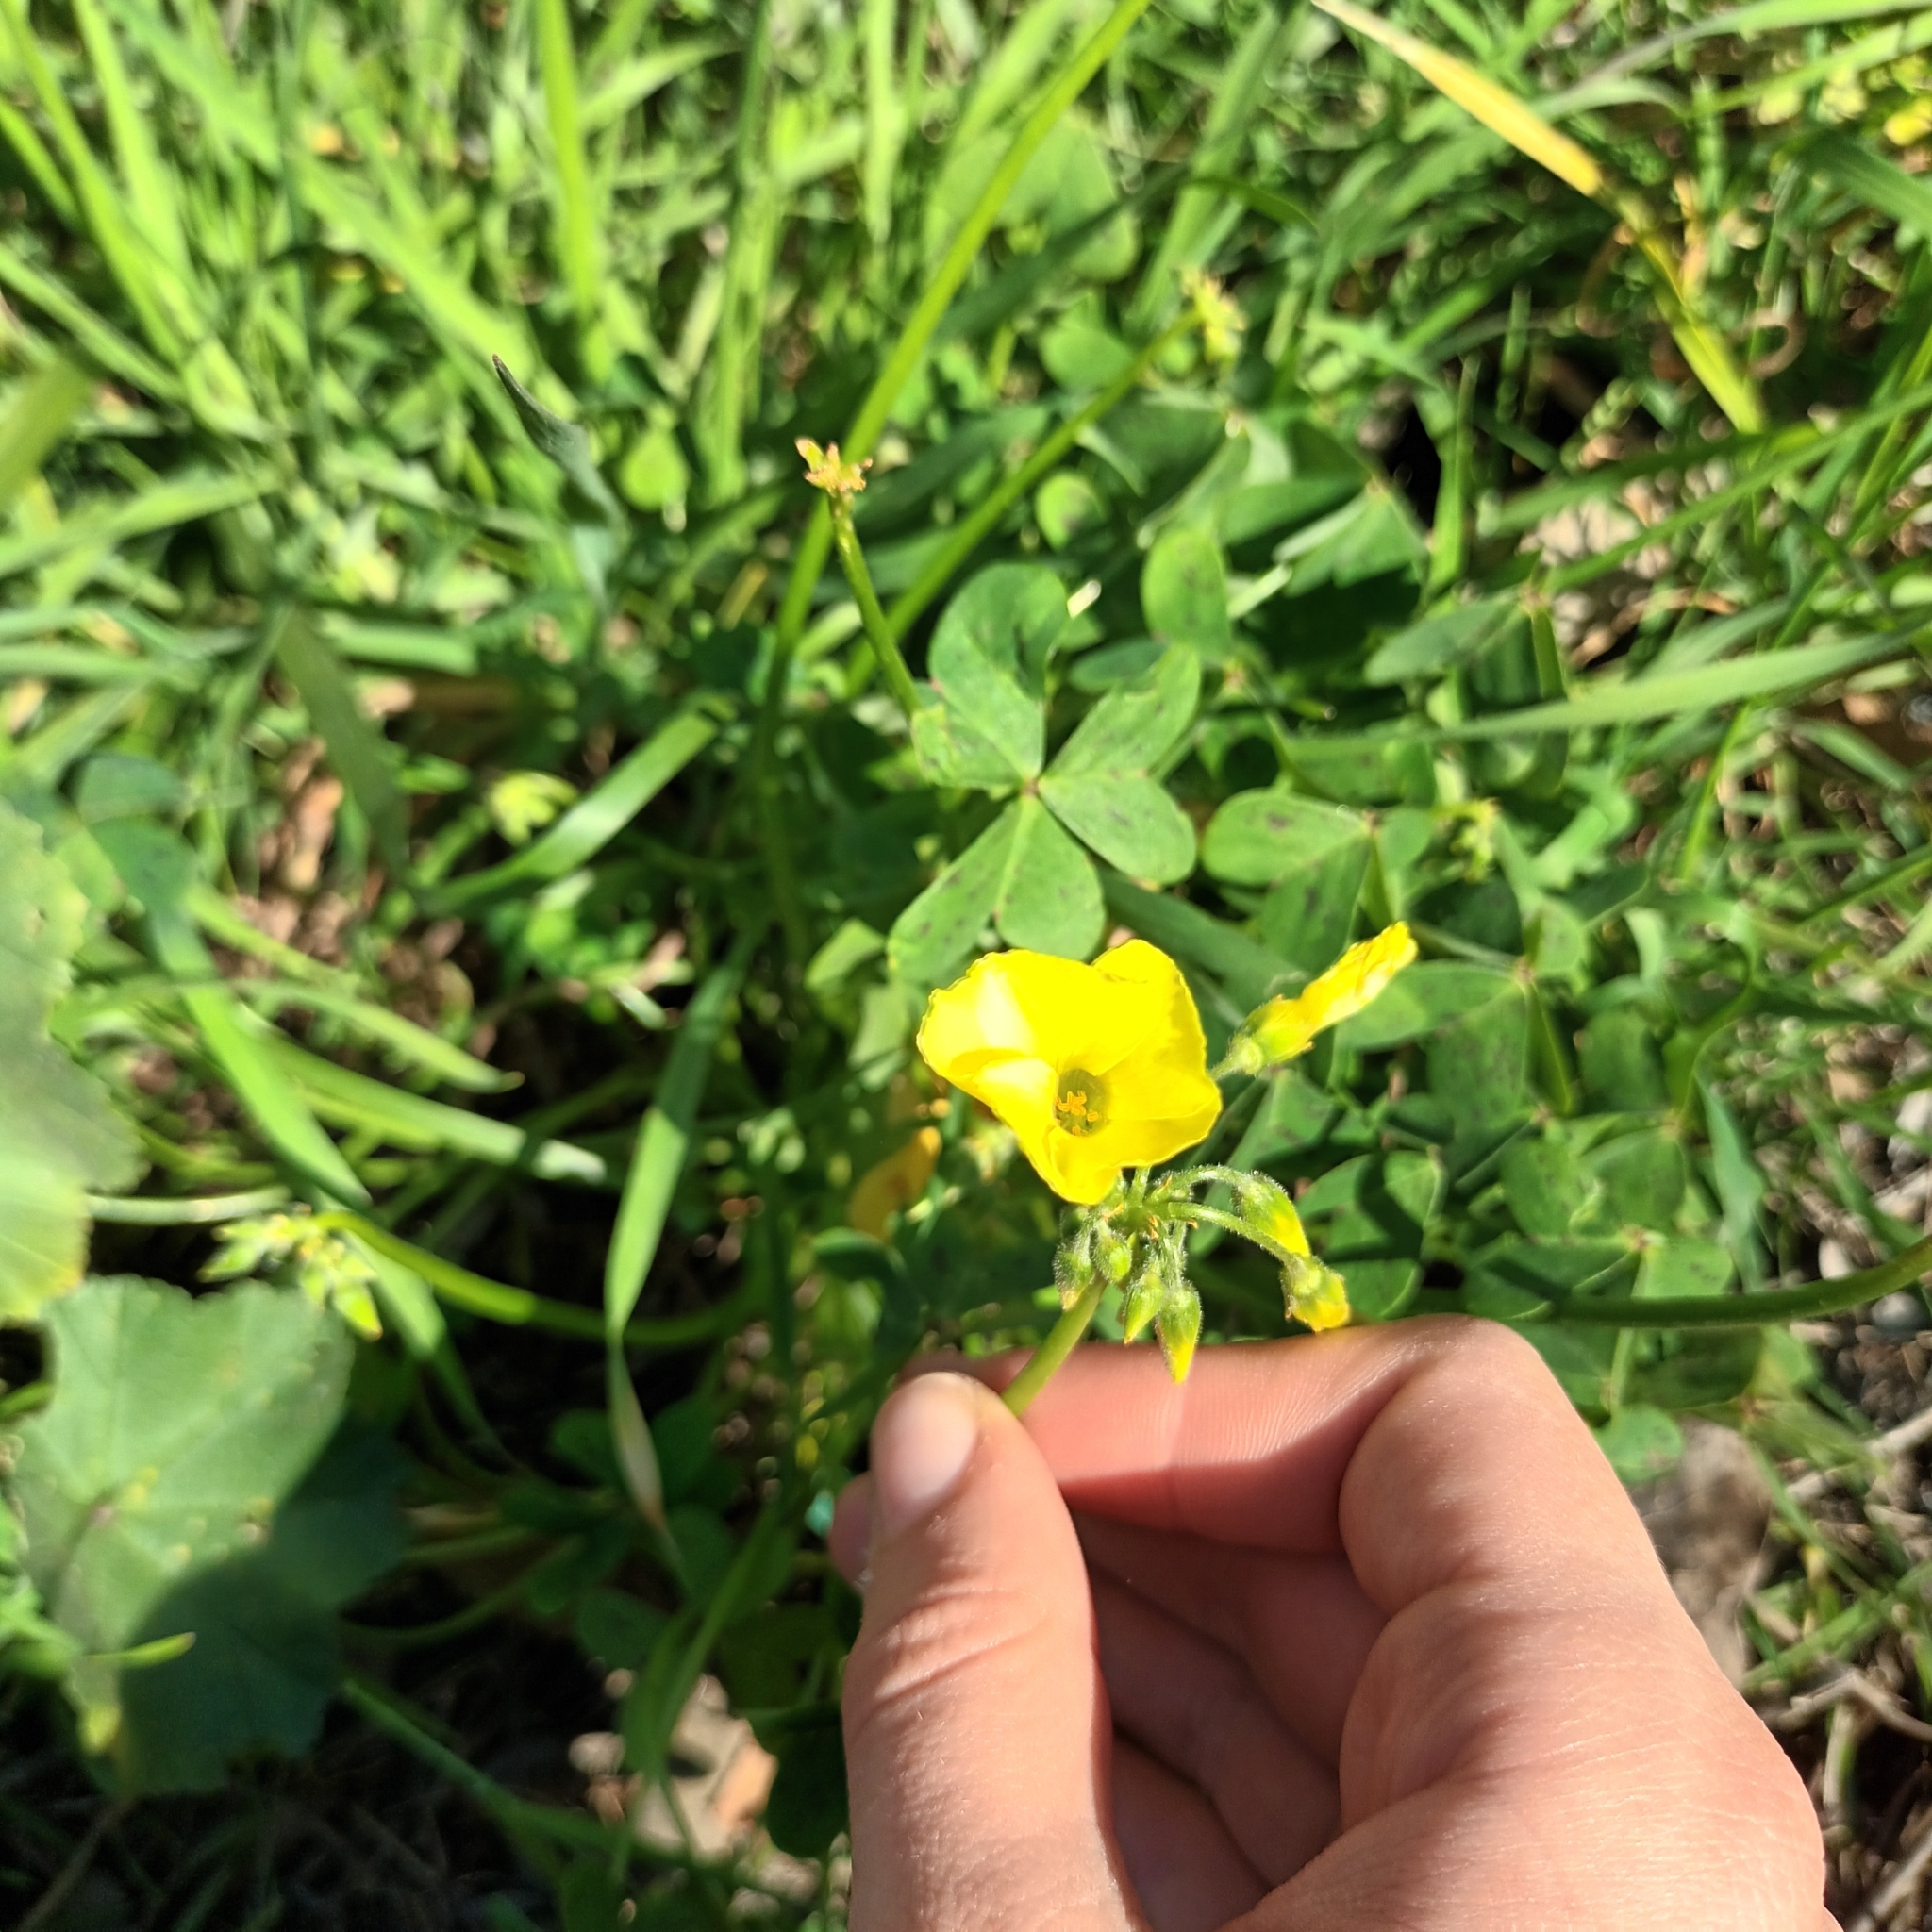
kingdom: Plantae
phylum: Tracheophyta
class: Magnoliopsida
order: Oxalidales
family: Oxalidaceae
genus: Oxalis
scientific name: Oxalis pes-caprae
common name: Bermuda-buttercup
